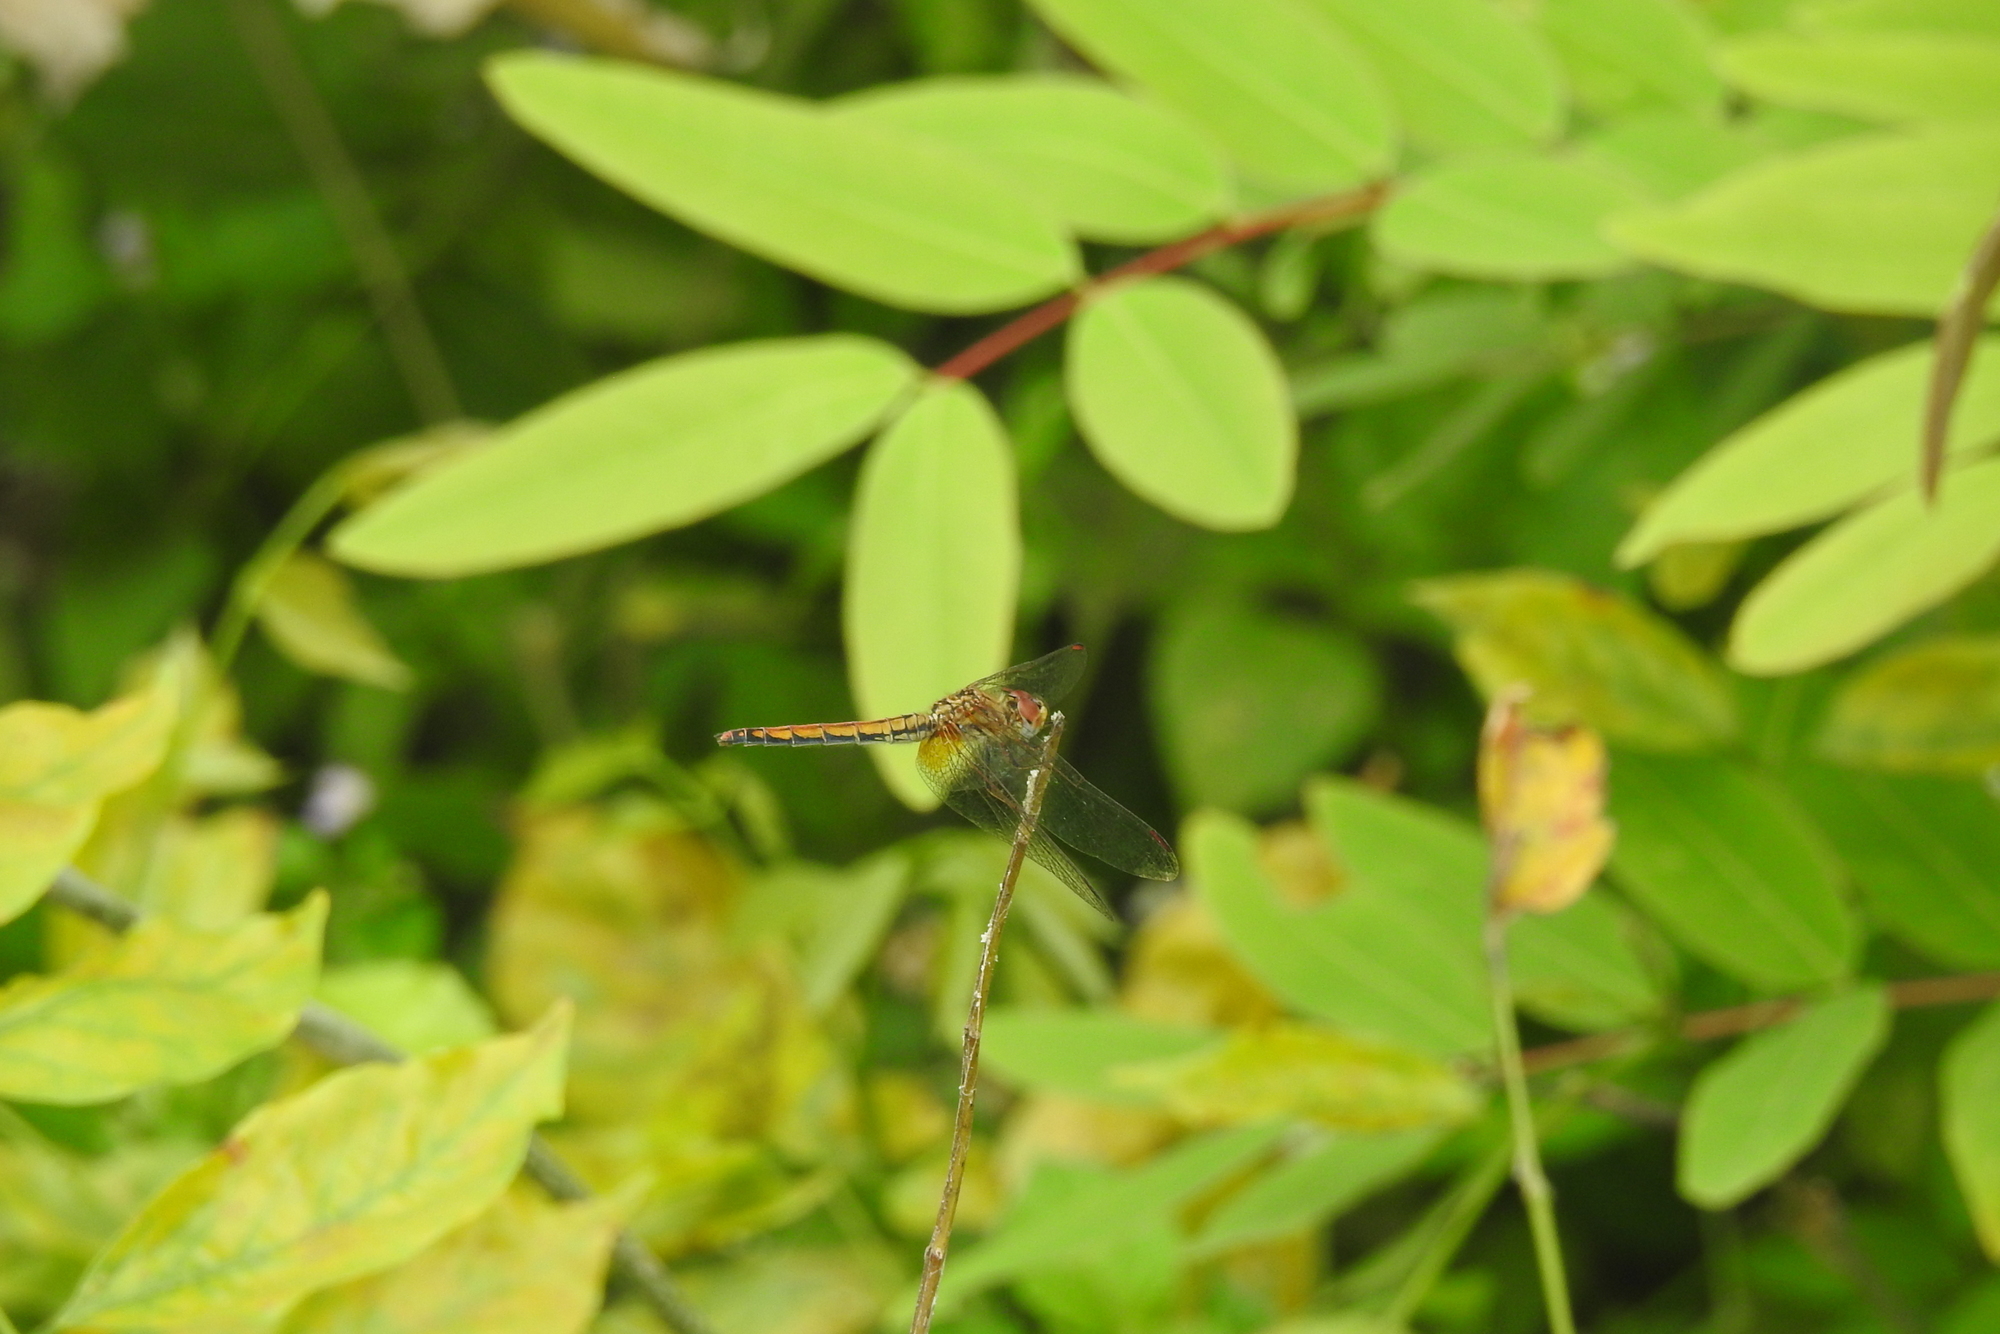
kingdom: Animalia
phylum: Arthropoda
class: Insecta
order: Odonata
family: Libellulidae
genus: Trithemis
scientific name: Trithemis aurora
